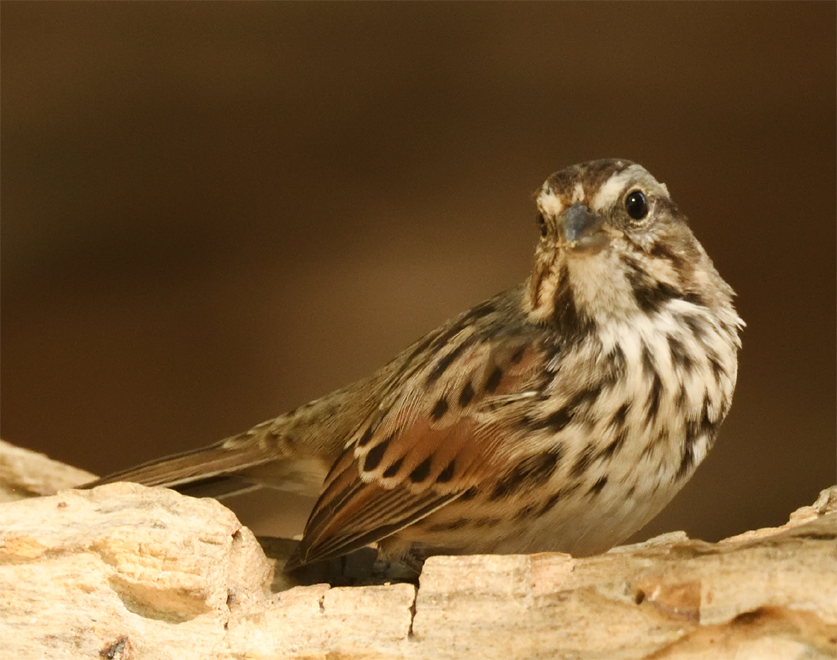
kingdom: Animalia
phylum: Chordata
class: Aves
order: Passeriformes
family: Passerellidae
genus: Melospiza
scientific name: Melospiza melodia
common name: Song sparrow
